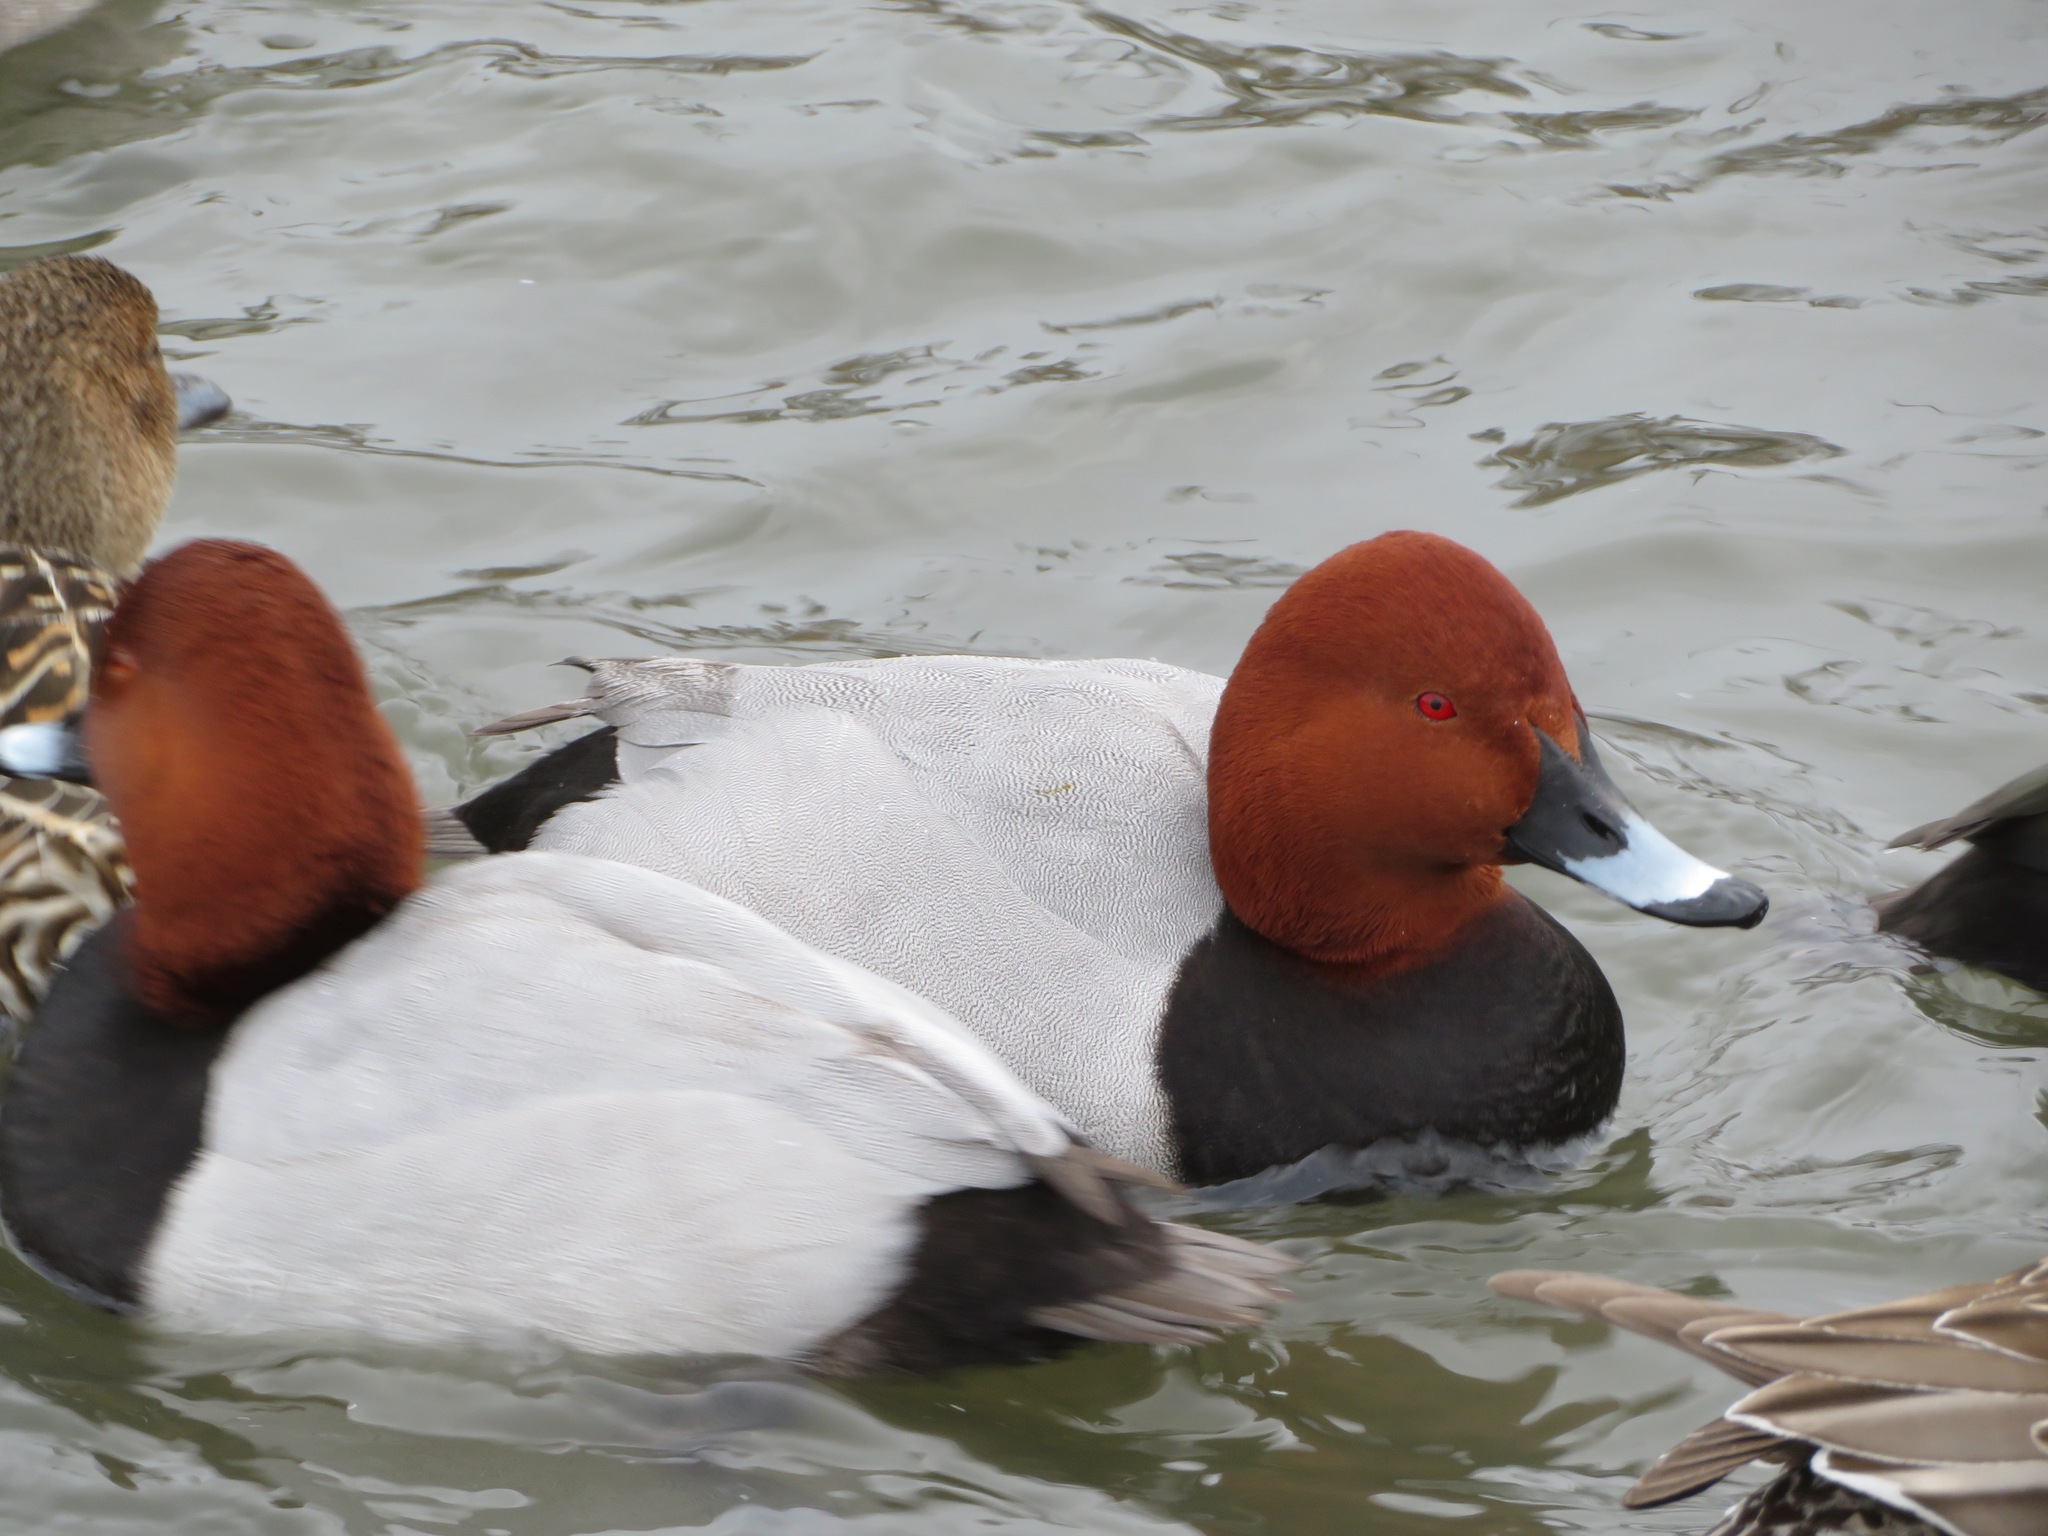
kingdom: Animalia
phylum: Chordata
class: Aves
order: Anseriformes
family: Anatidae
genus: Aythya
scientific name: Aythya ferina
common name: Common pochard
